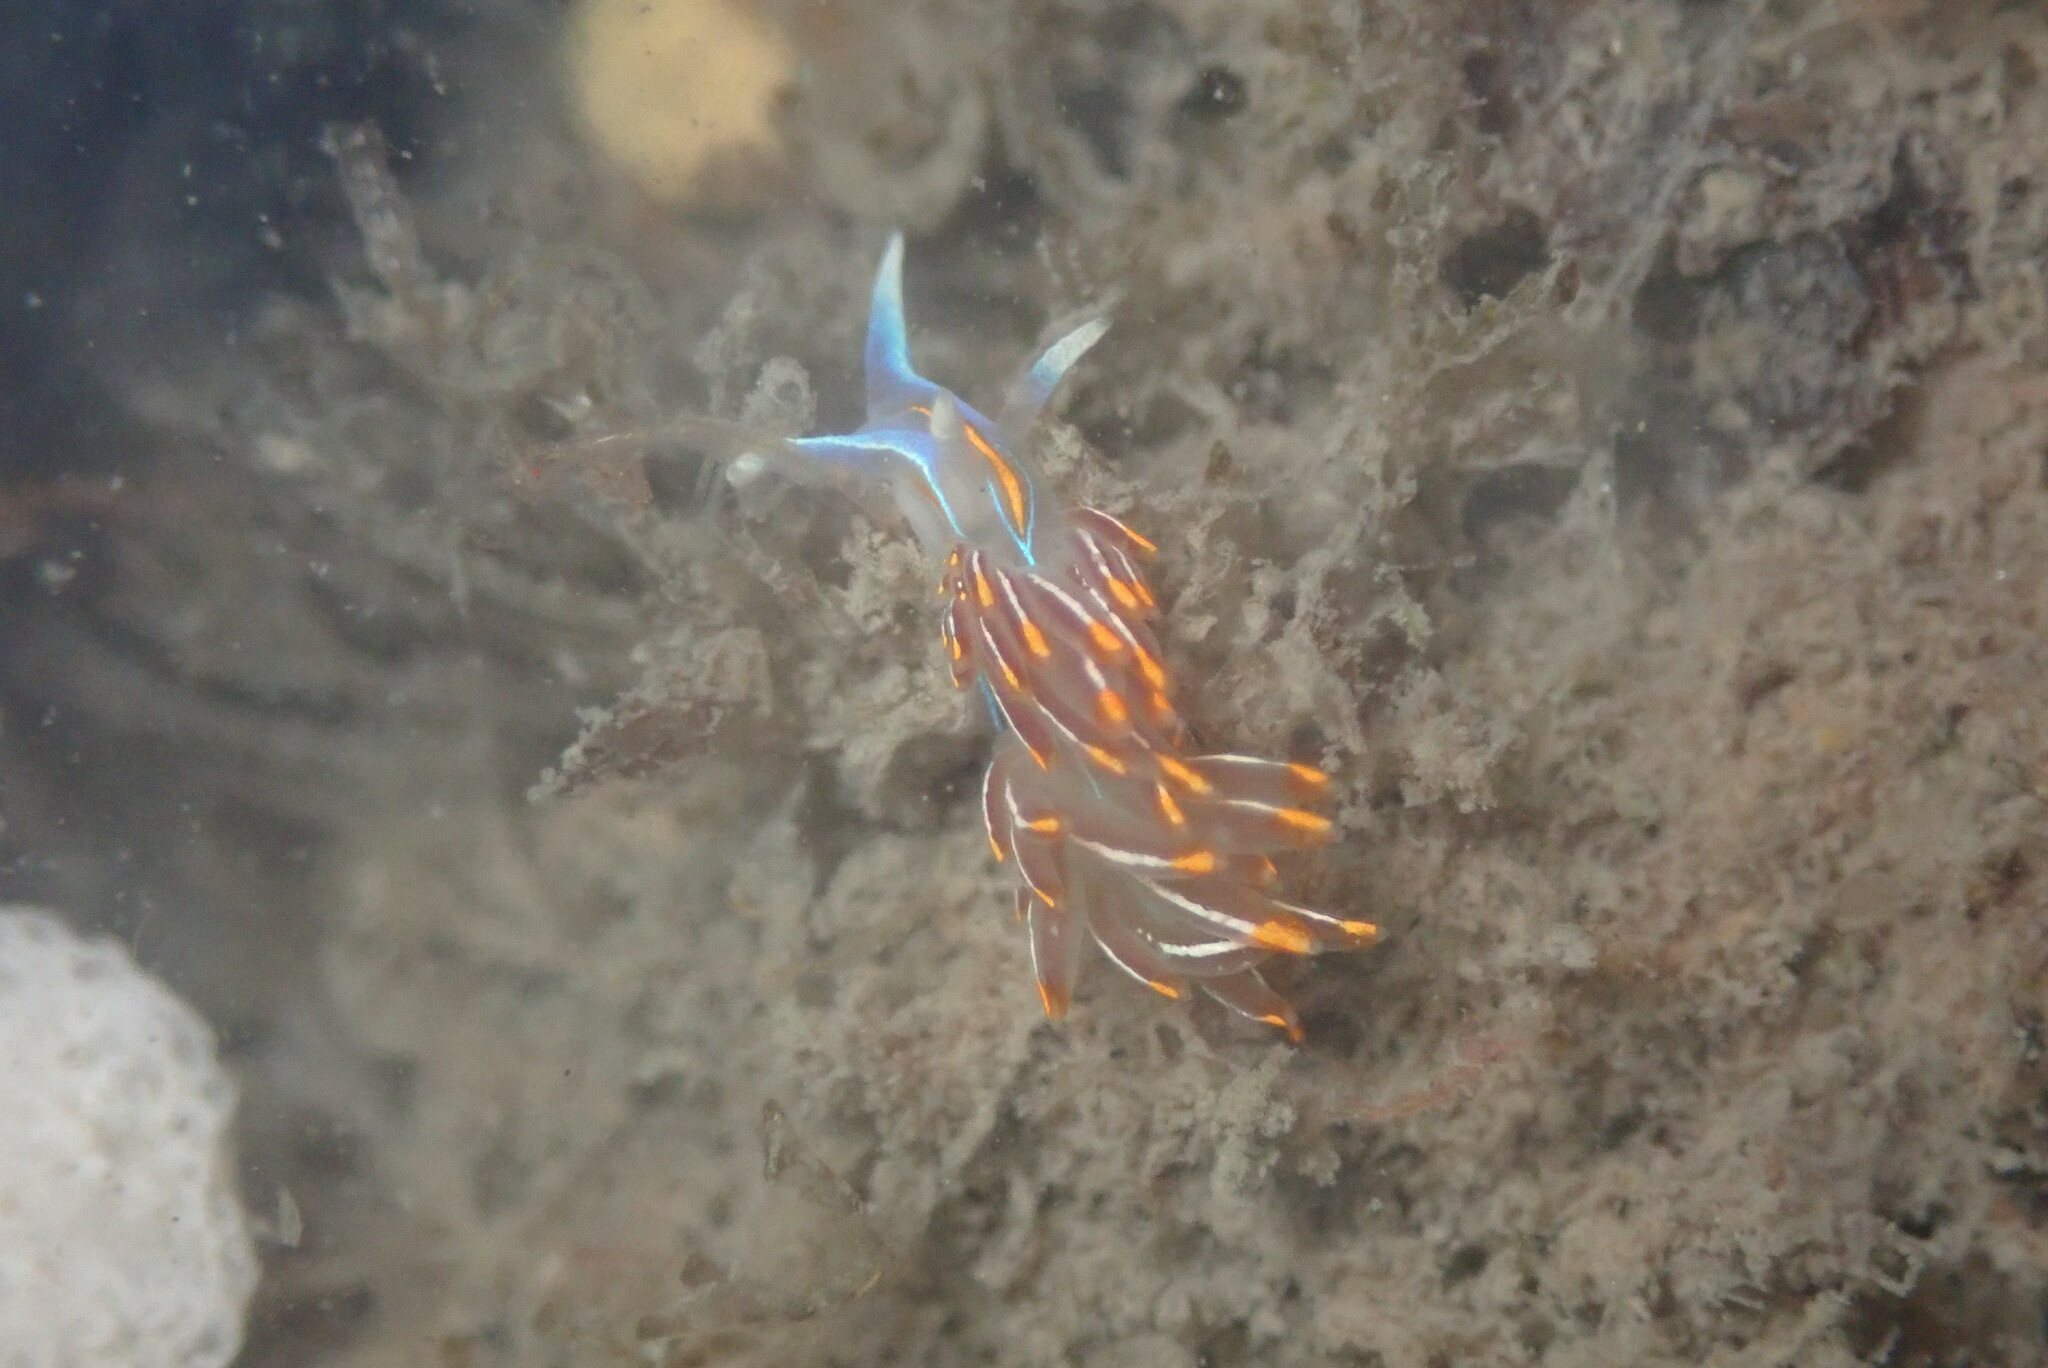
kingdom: Animalia
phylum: Mollusca
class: Gastropoda
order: Nudibranchia
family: Myrrhinidae
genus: Hermissenda
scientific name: Hermissenda crassicornis
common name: Hermissenda
